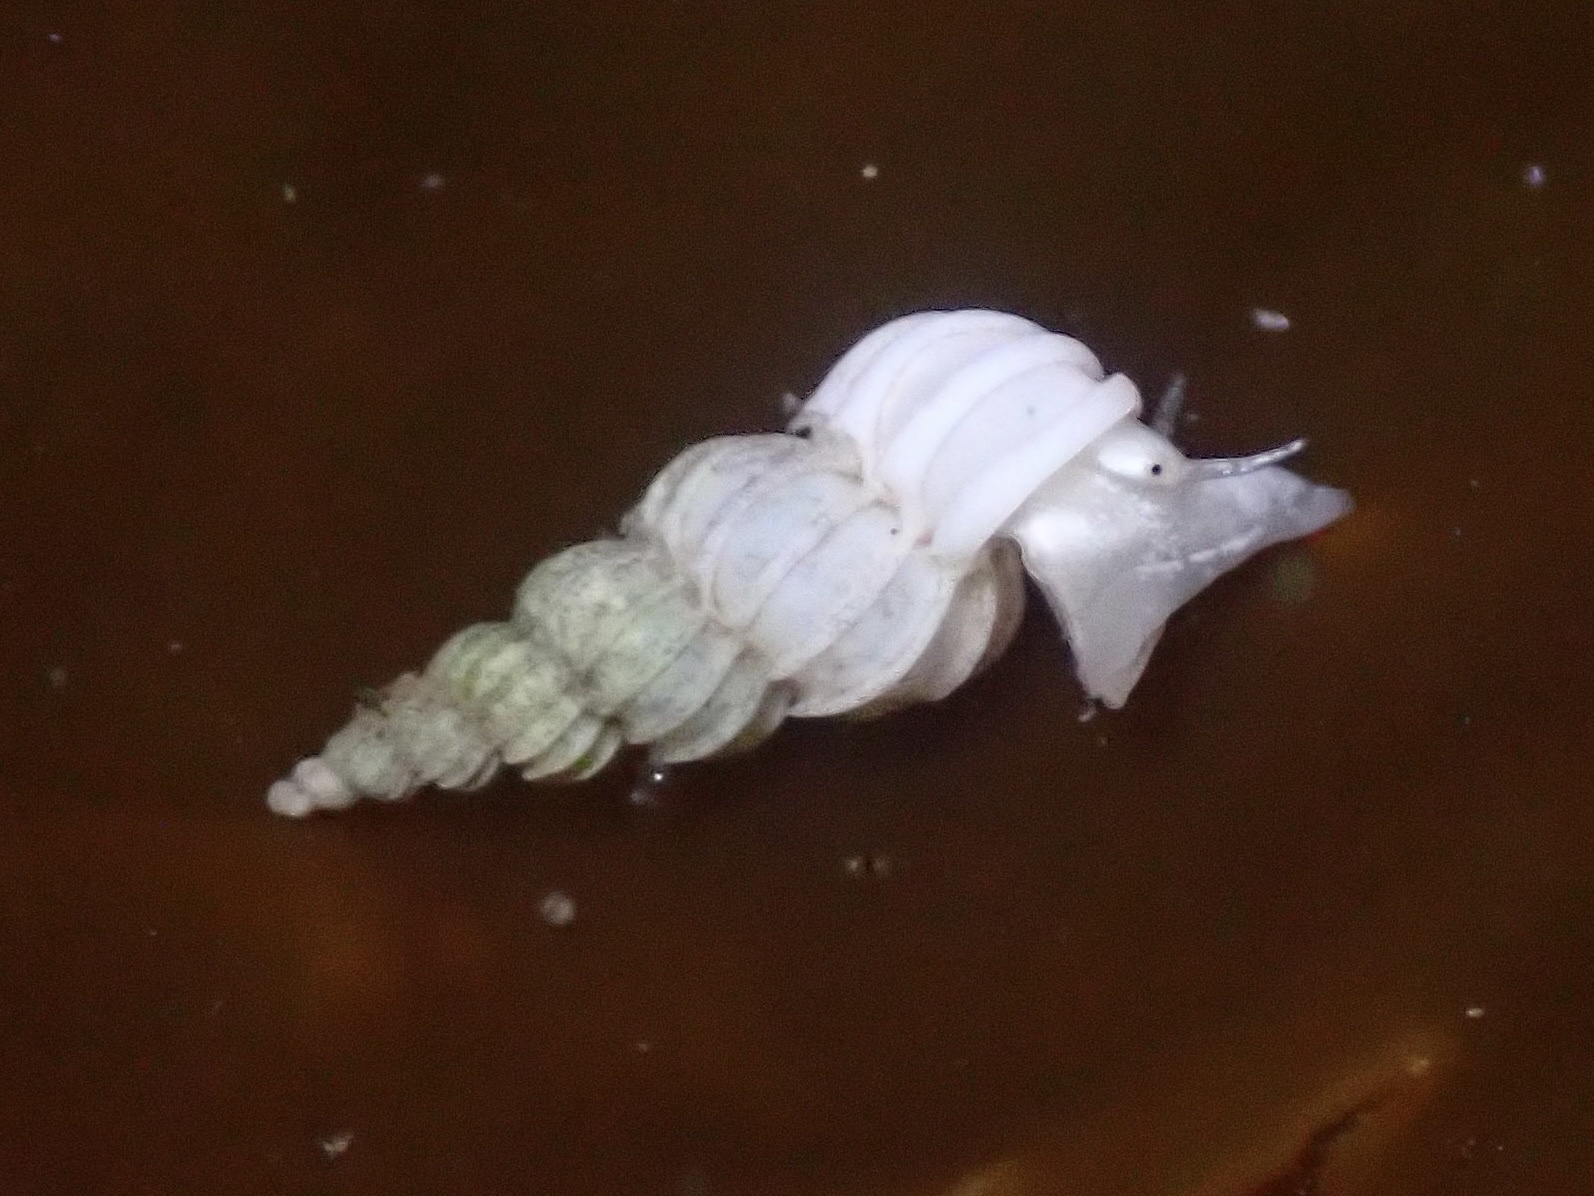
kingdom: Animalia
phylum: Mollusca
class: Gastropoda
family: Epitoniidae
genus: Epitonium
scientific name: Epitonium tinctum
